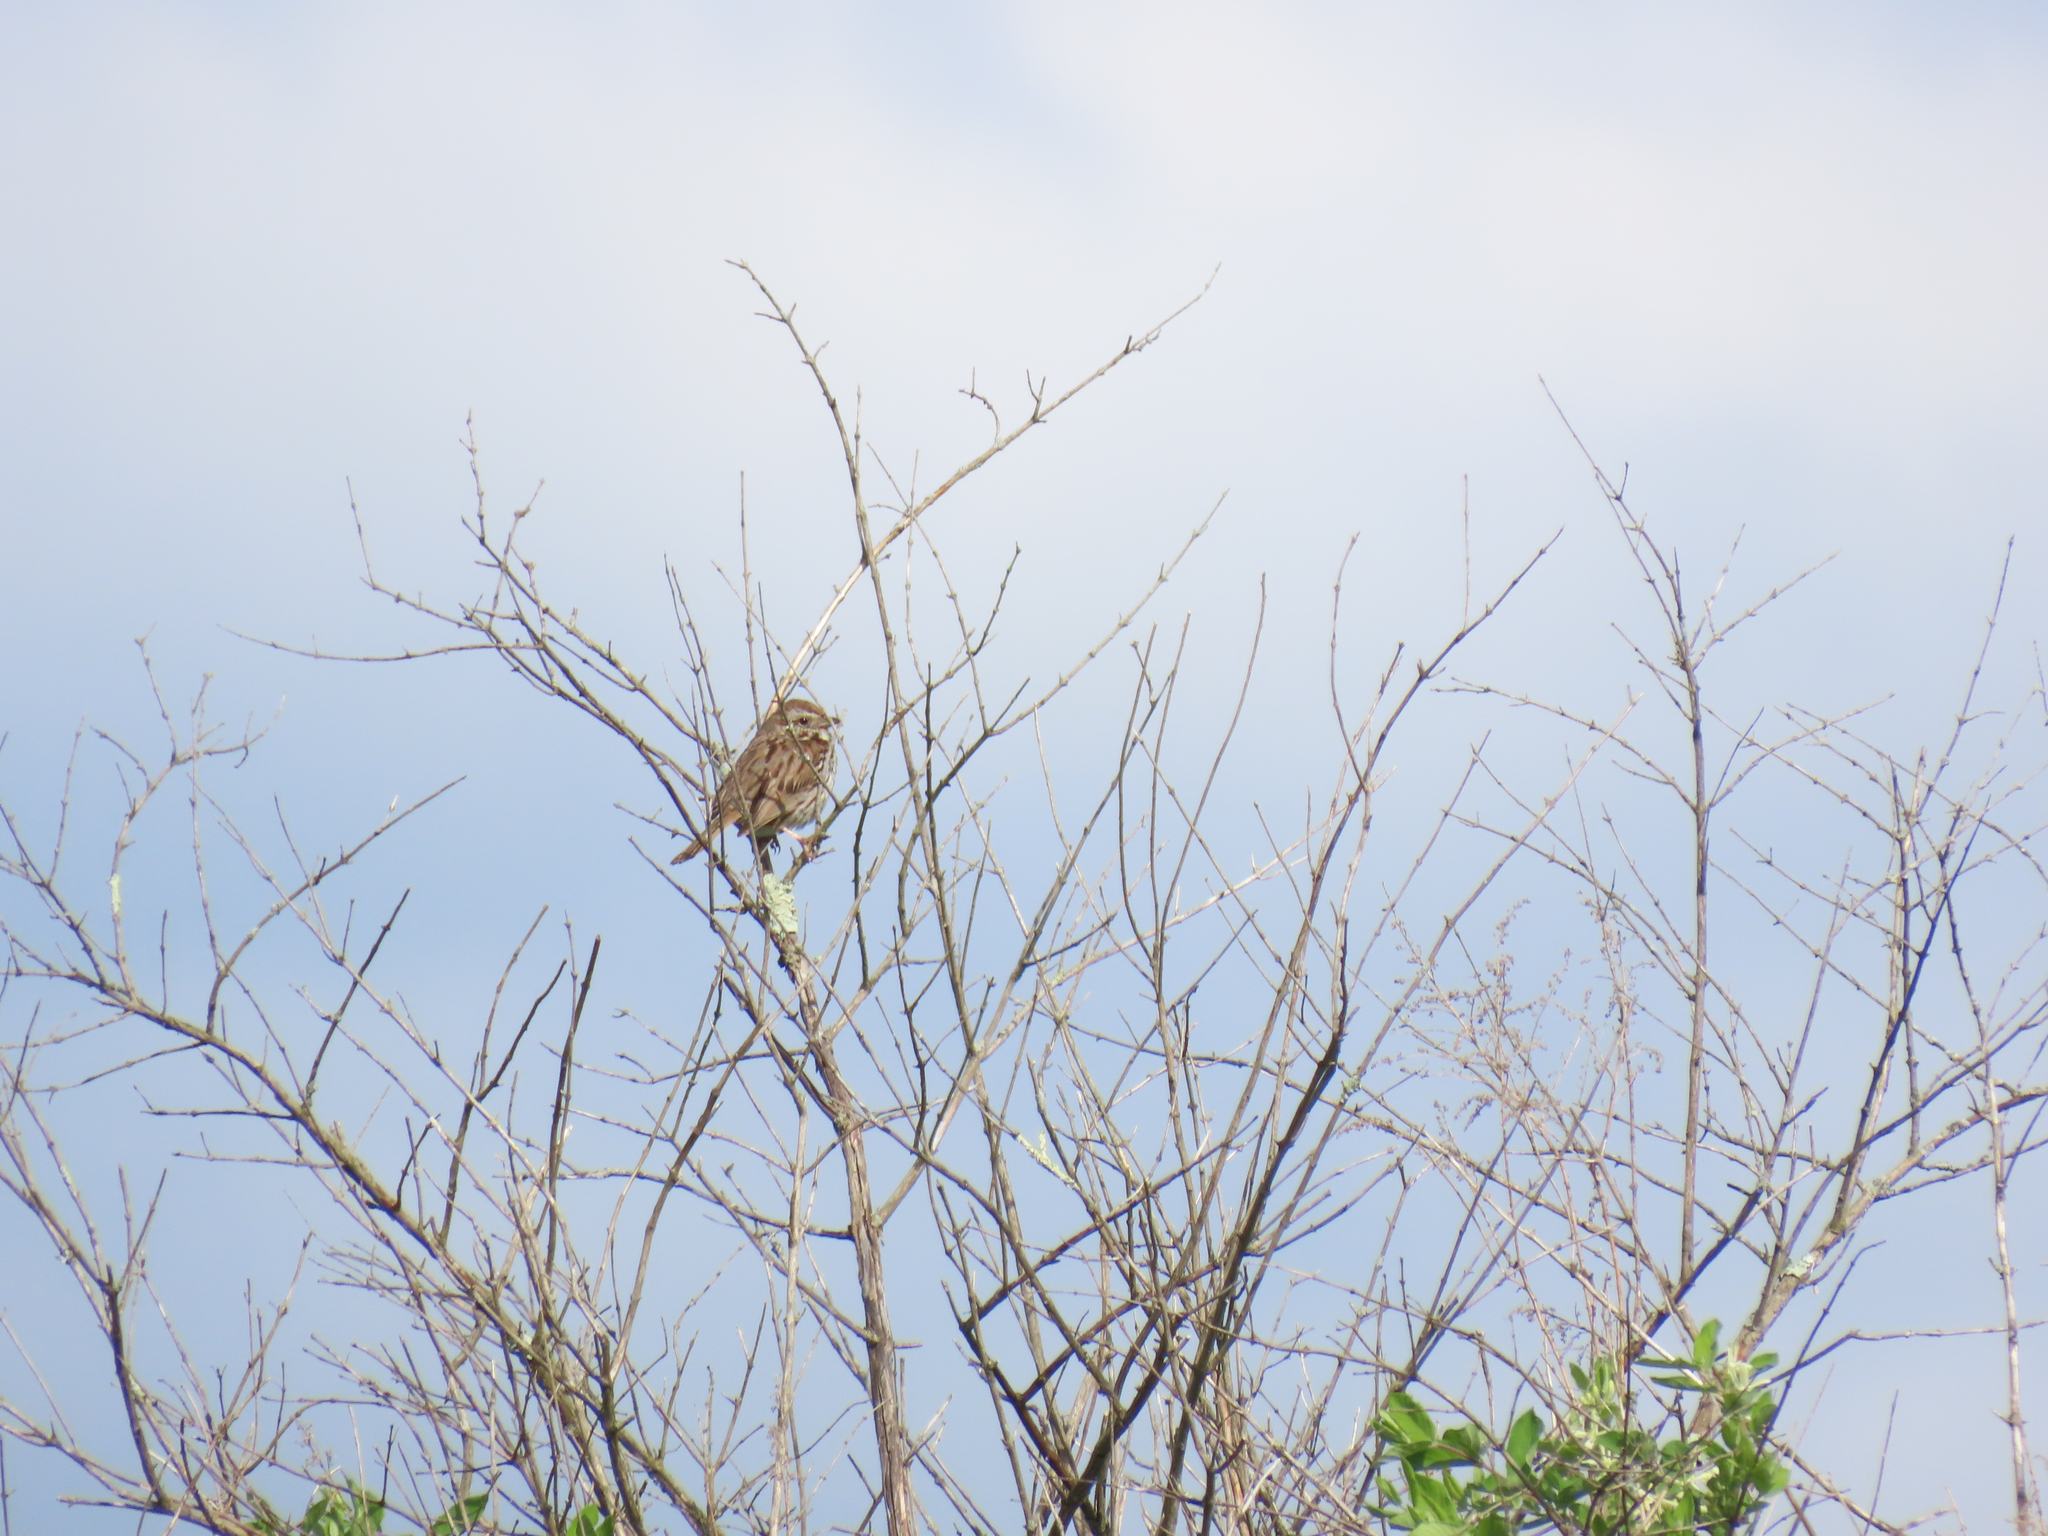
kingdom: Animalia
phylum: Chordata
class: Aves
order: Passeriformes
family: Passerellidae
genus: Melospiza
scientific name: Melospiza melodia
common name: Song sparrow
